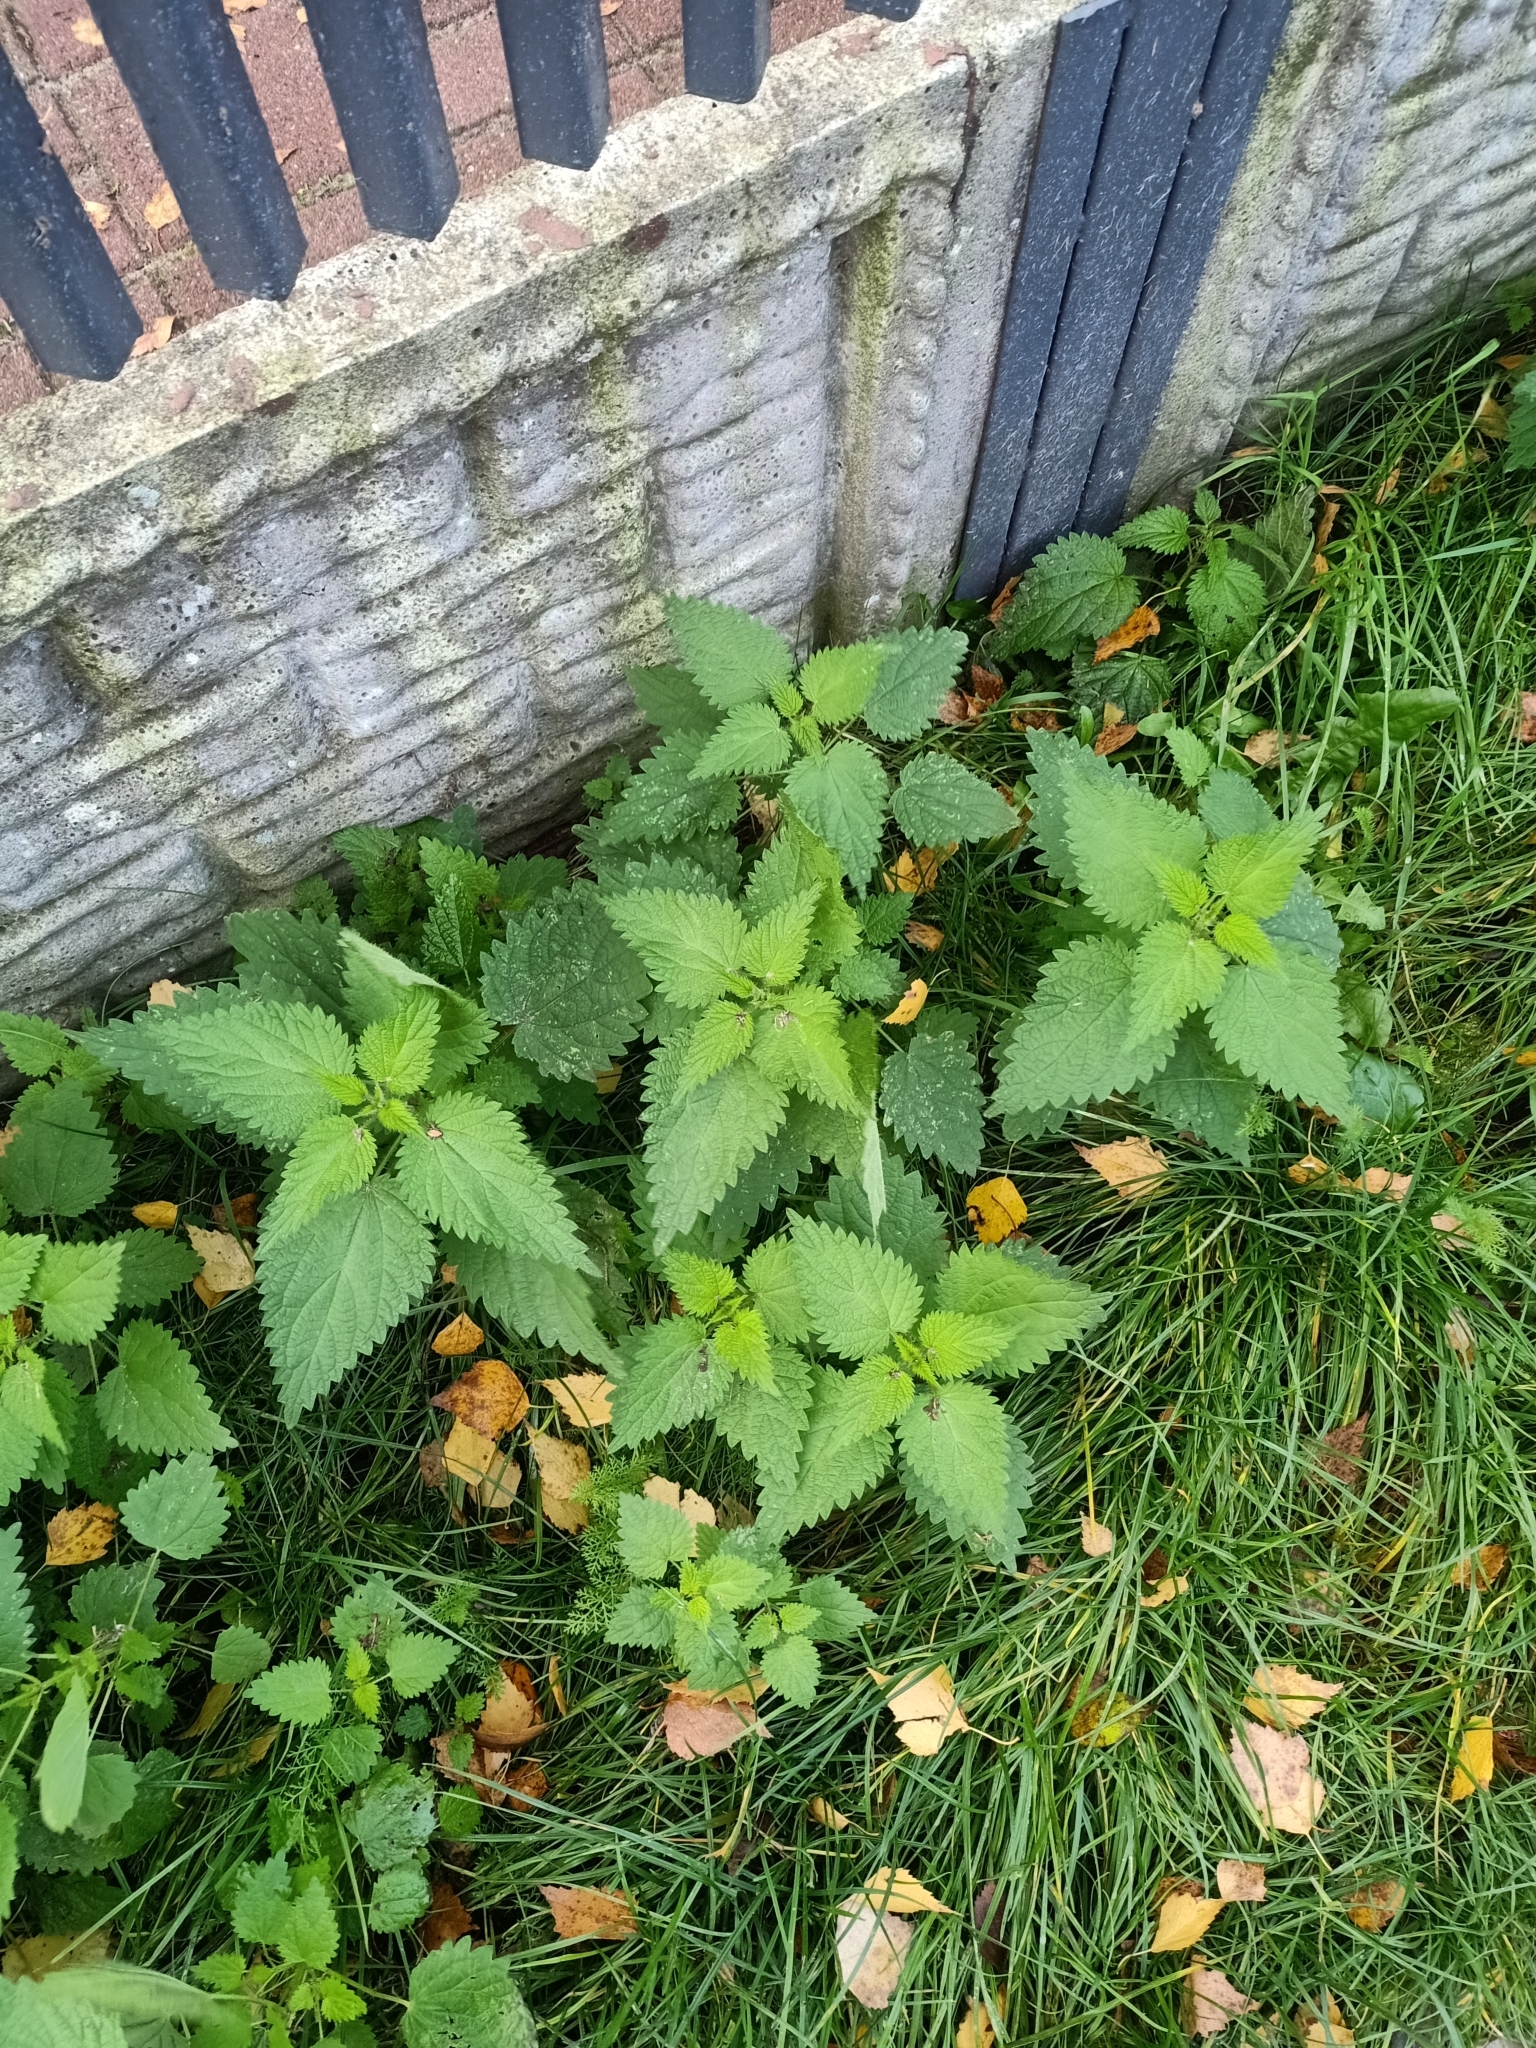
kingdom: Plantae
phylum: Tracheophyta
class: Magnoliopsida
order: Rosales
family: Urticaceae
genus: Urtica
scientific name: Urtica dioica
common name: Common nettle
